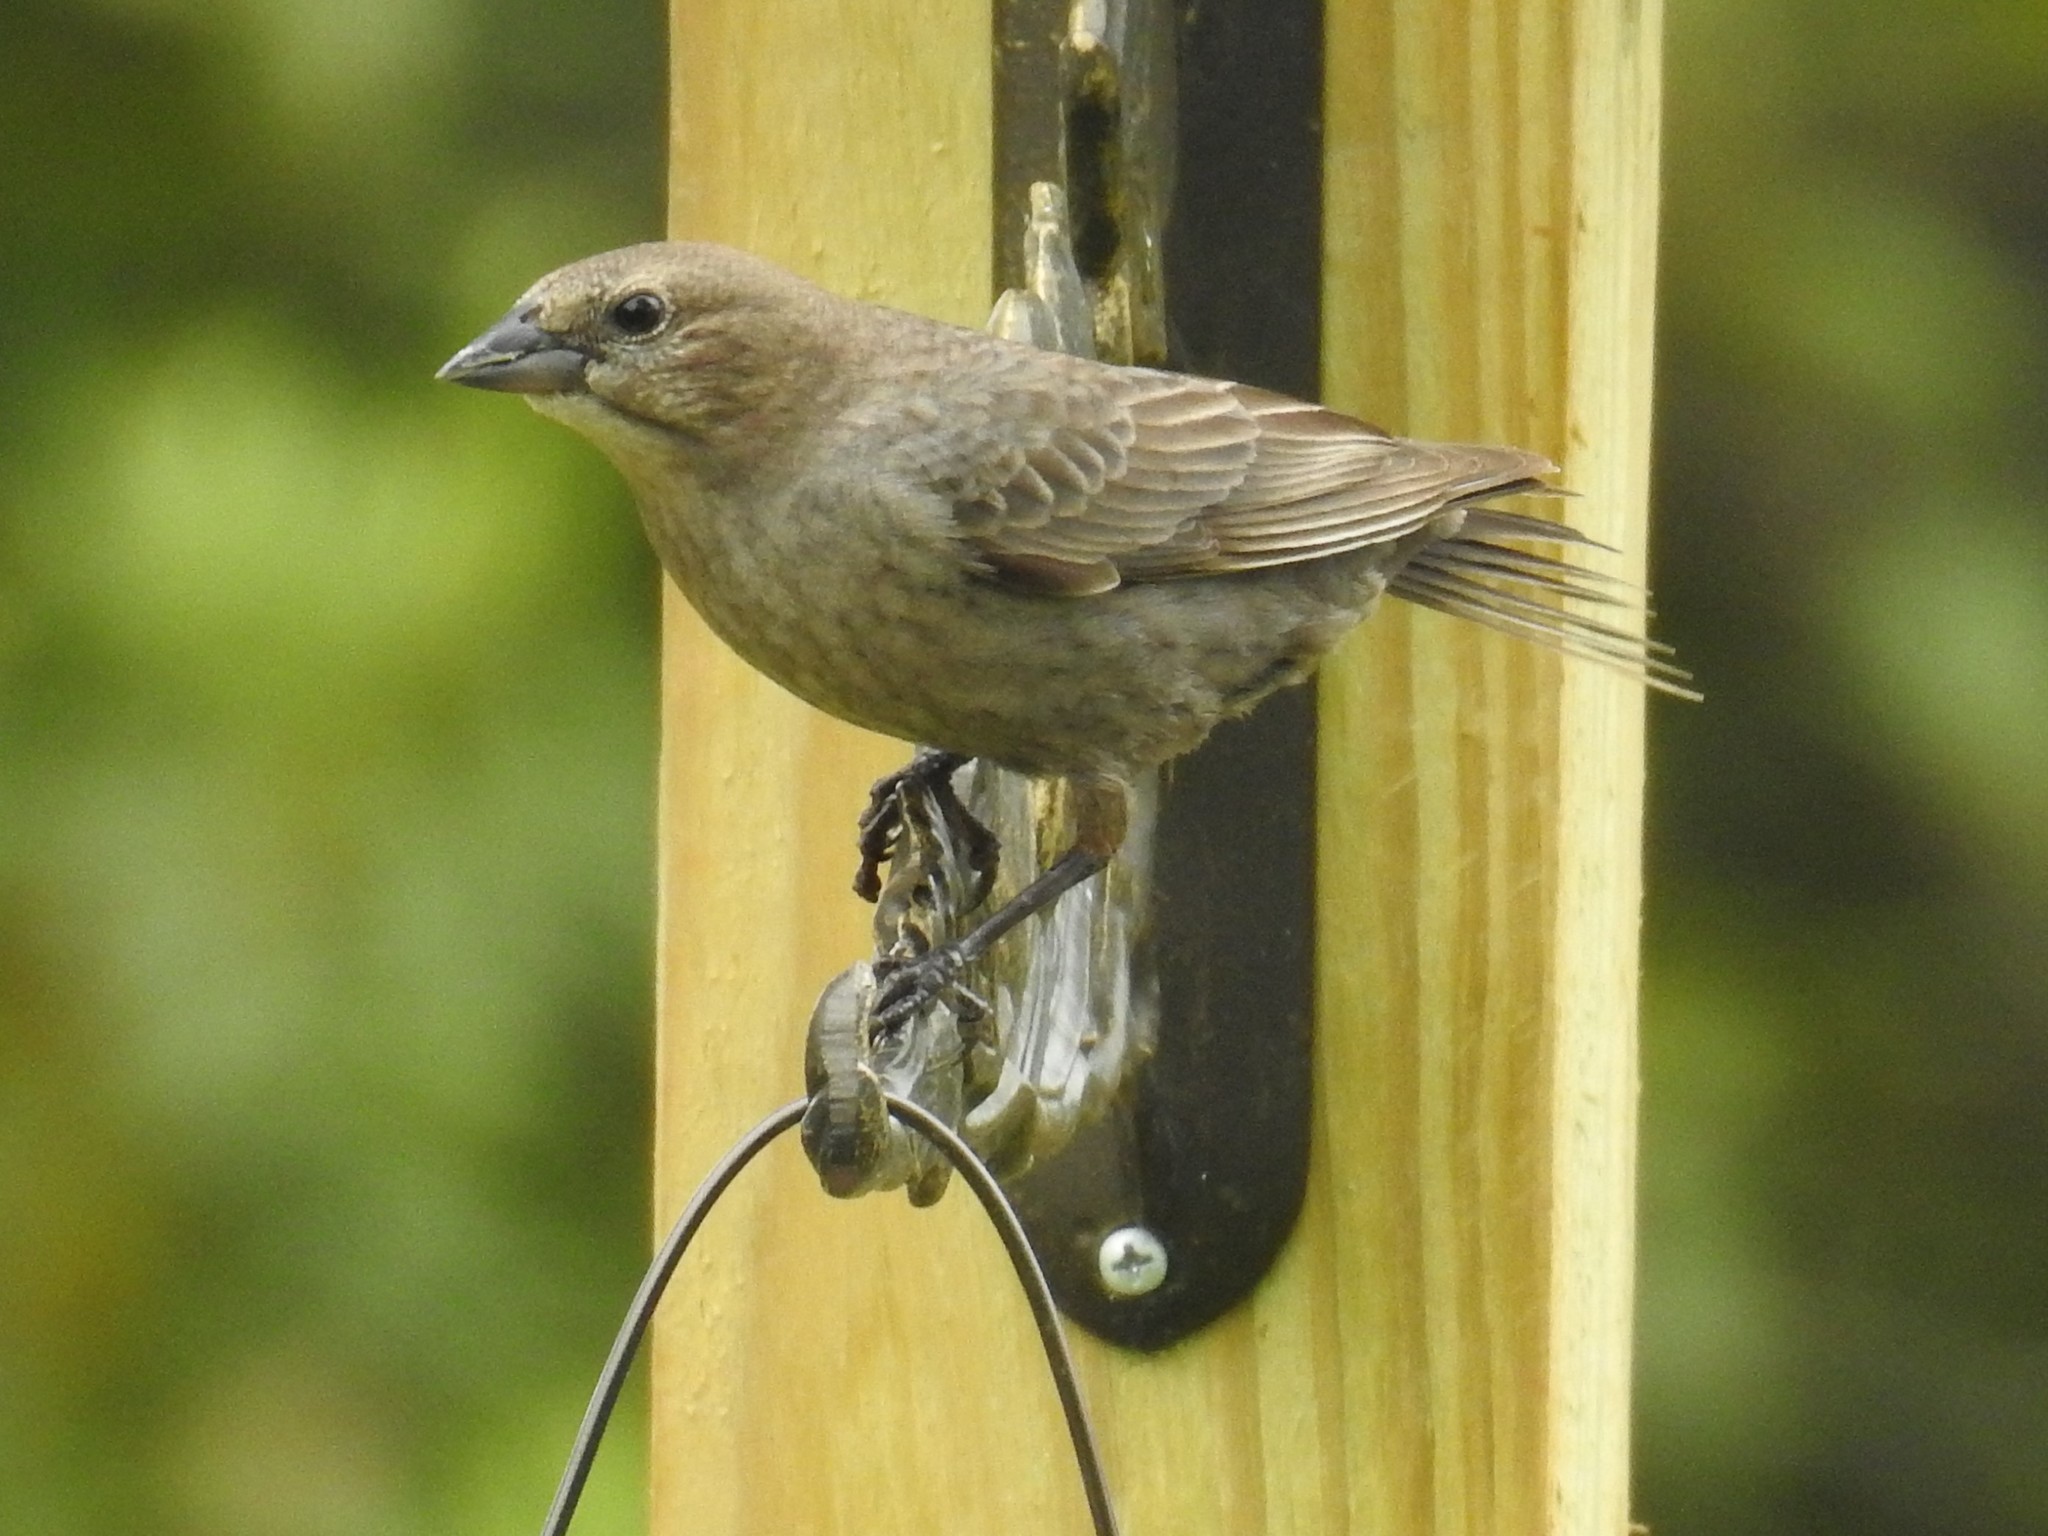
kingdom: Animalia
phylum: Chordata
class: Aves
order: Passeriformes
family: Icteridae
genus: Molothrus
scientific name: Molothrus ater
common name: Brown-headed cowbird
